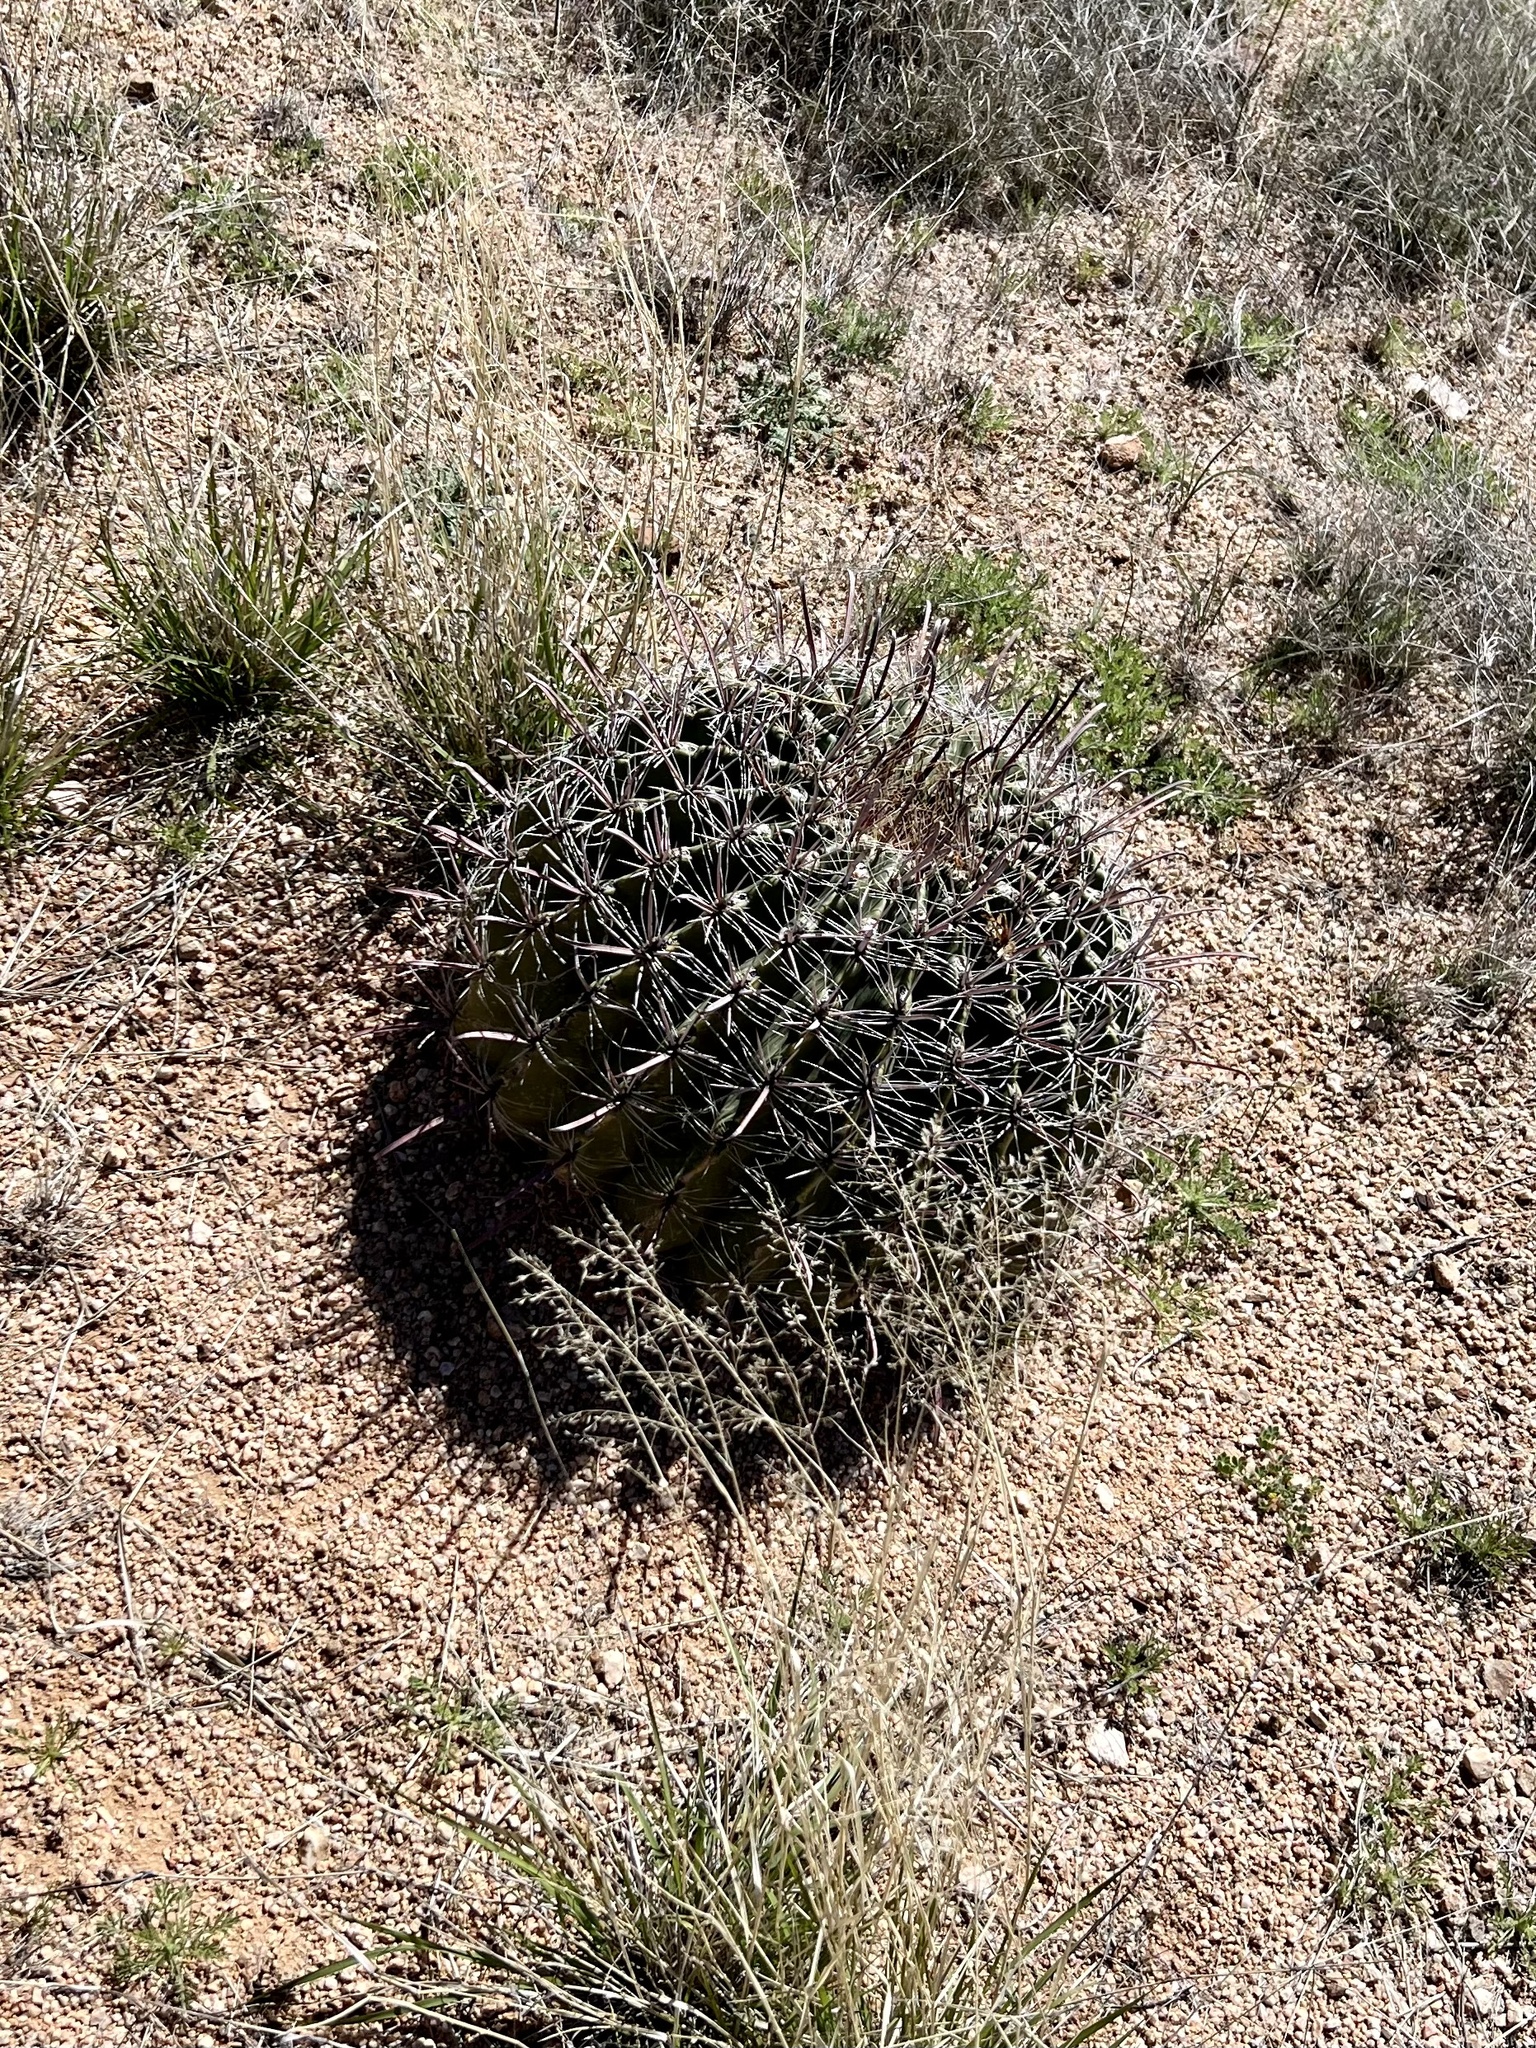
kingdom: Plantae
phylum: Tracheophyta
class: Magnoliopsida
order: Caryophyllales
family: Cactaceae
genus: Ferocactus
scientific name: Ferocactus wislizeni
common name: Candy barrel cactus
